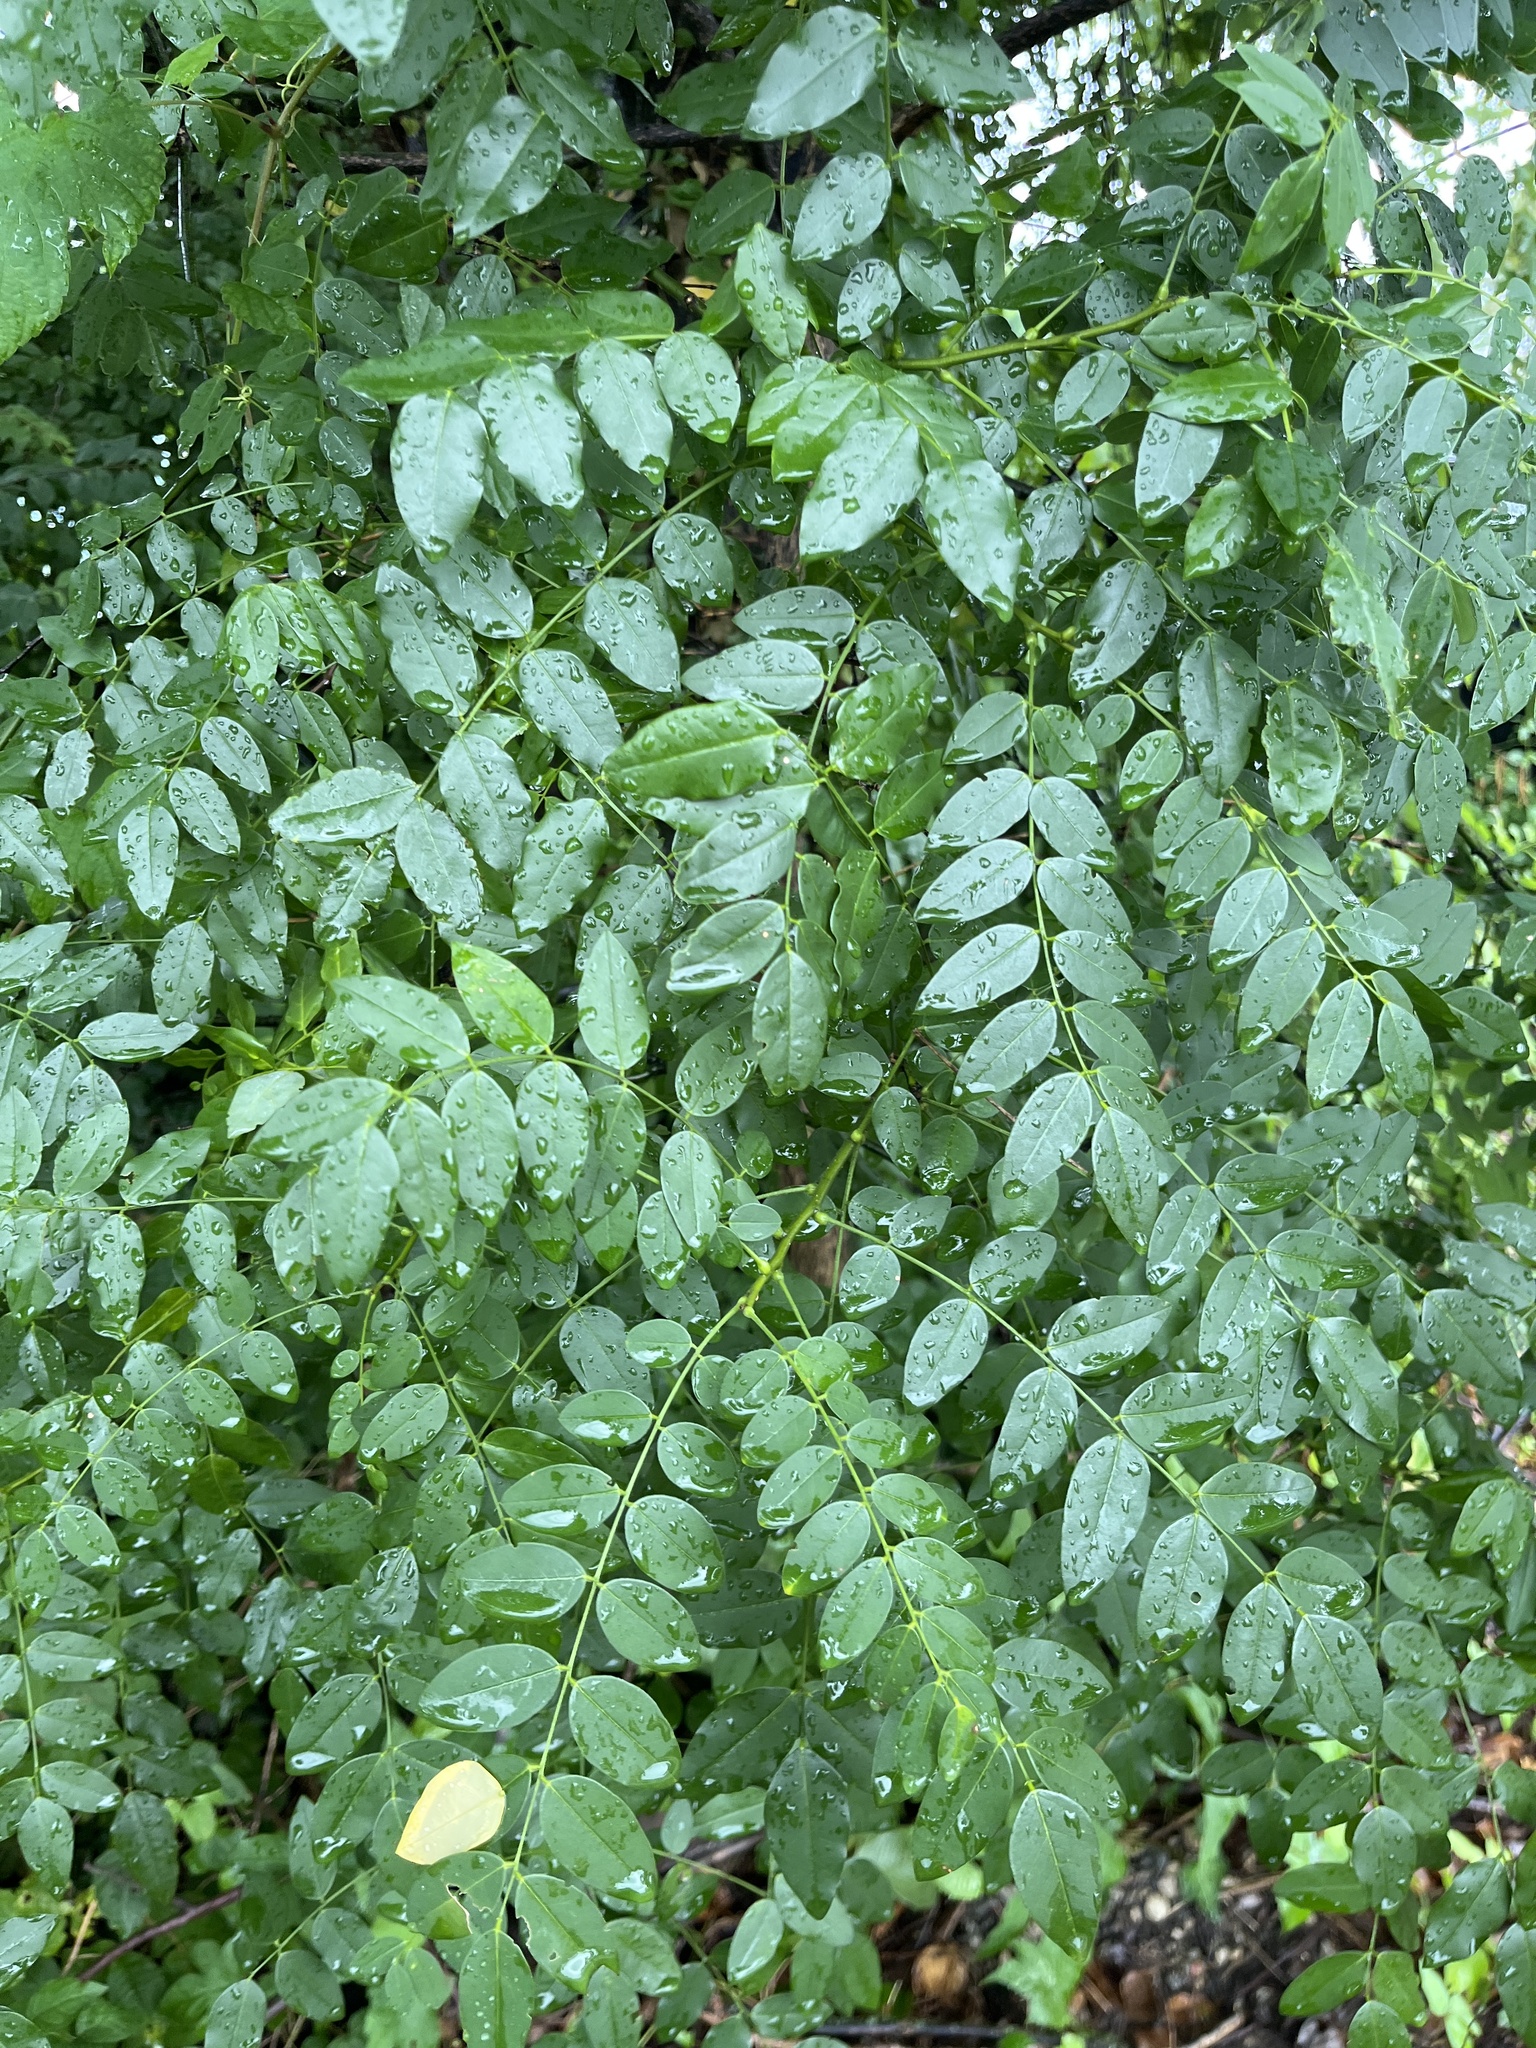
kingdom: Plantae
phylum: Tracheophyta
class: Magnoliopsida
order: Fabales
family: Fabaceae
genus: Robinia
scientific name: Robinia pseudoacacia
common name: Black locust
